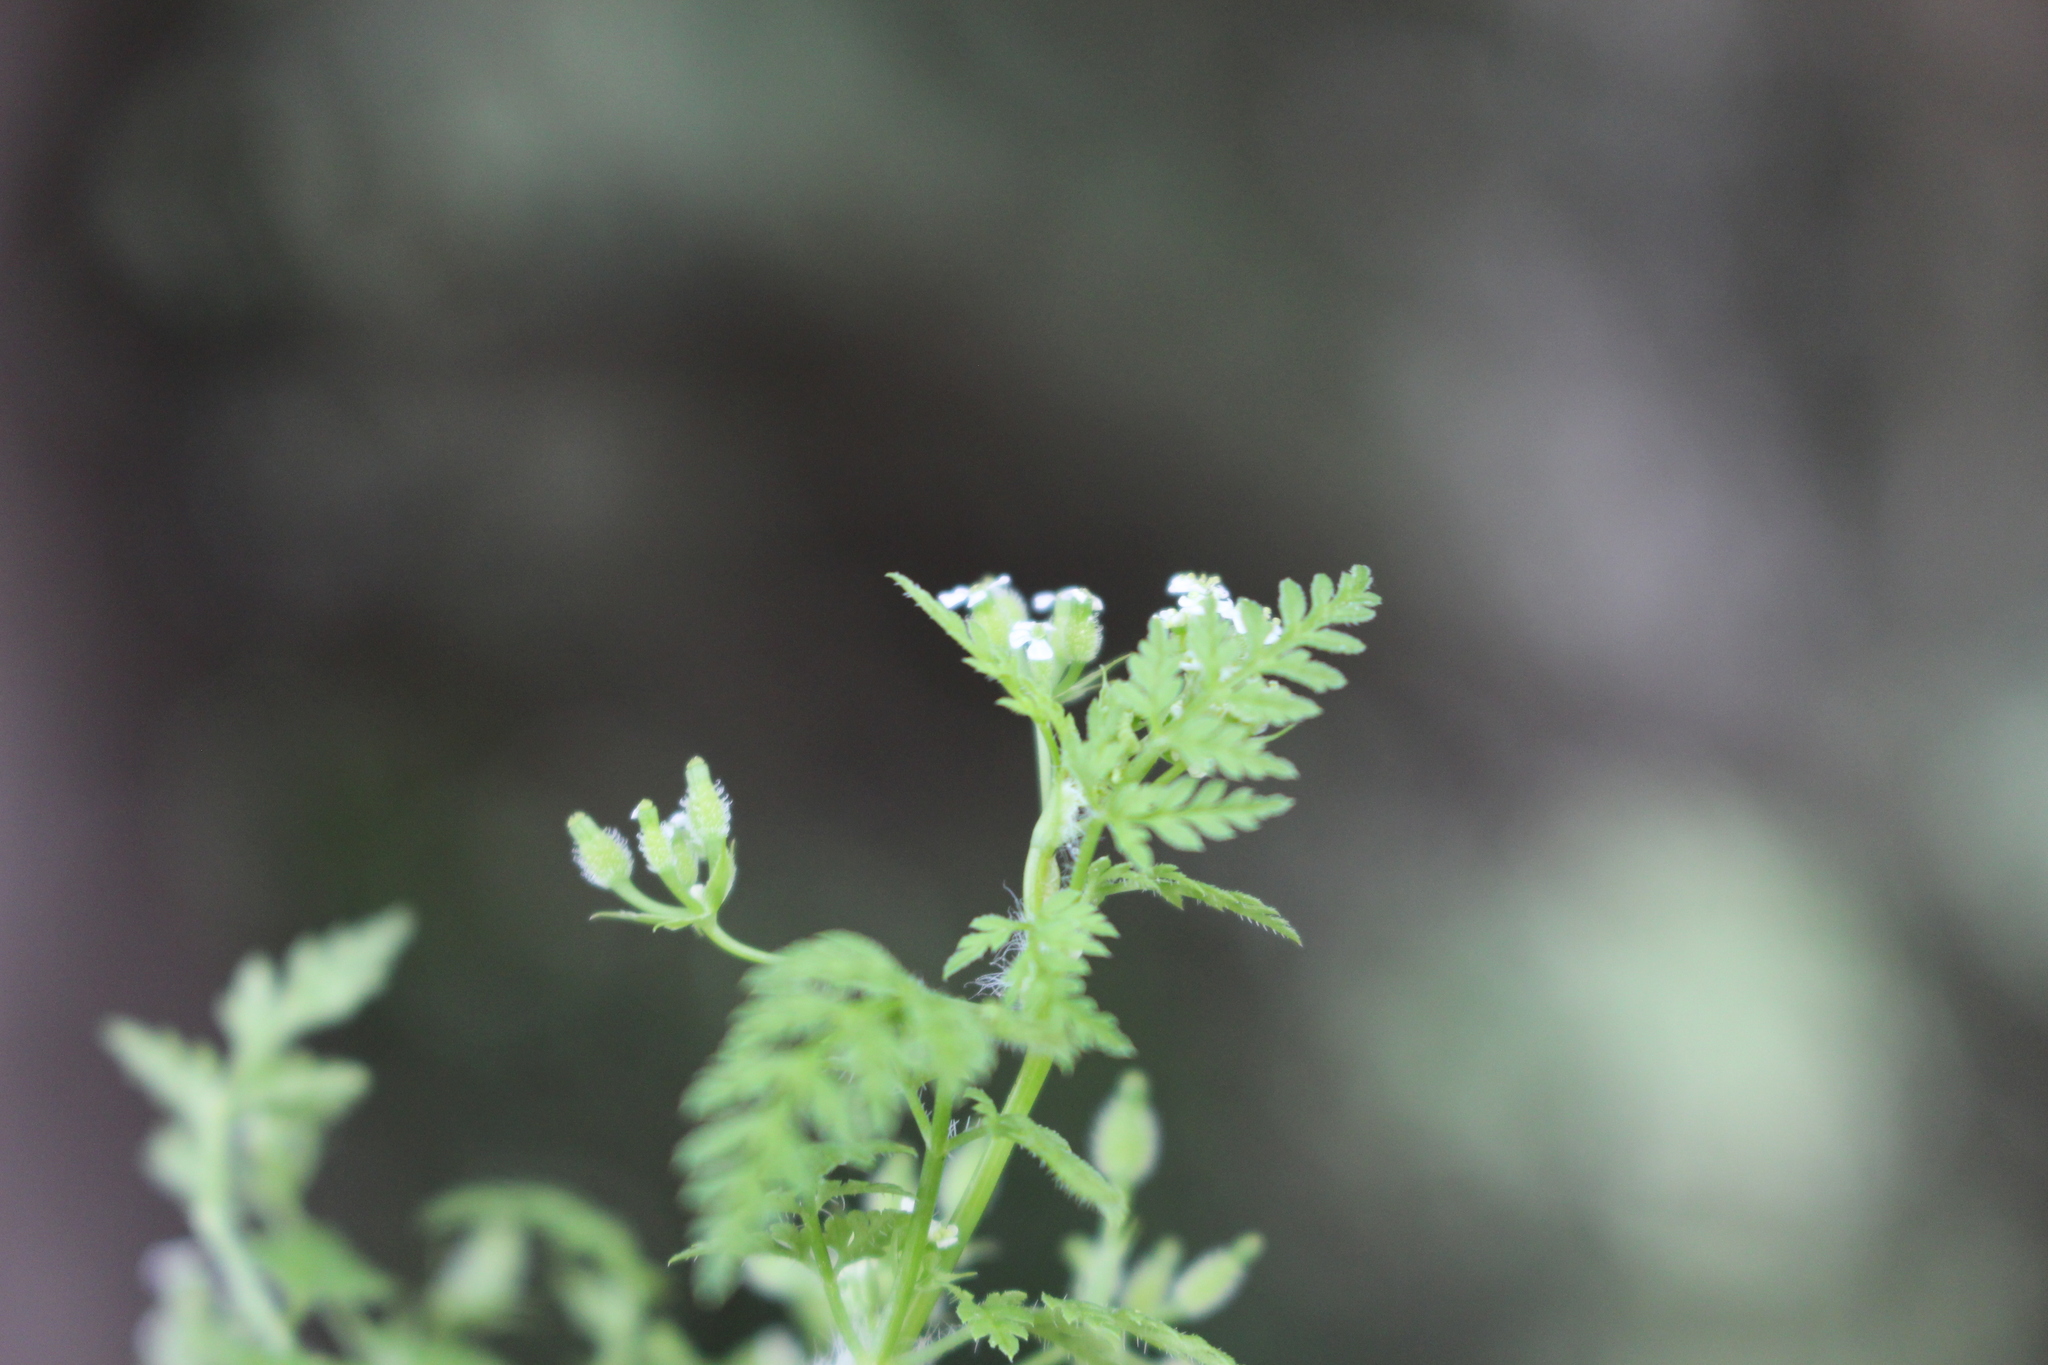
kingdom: Plantae
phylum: Tracheophyta
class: Magnoliopsida
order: Apiales
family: Apiaceae
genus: Anthriscus
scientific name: Anthriscus caucalis
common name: Bur chervil
